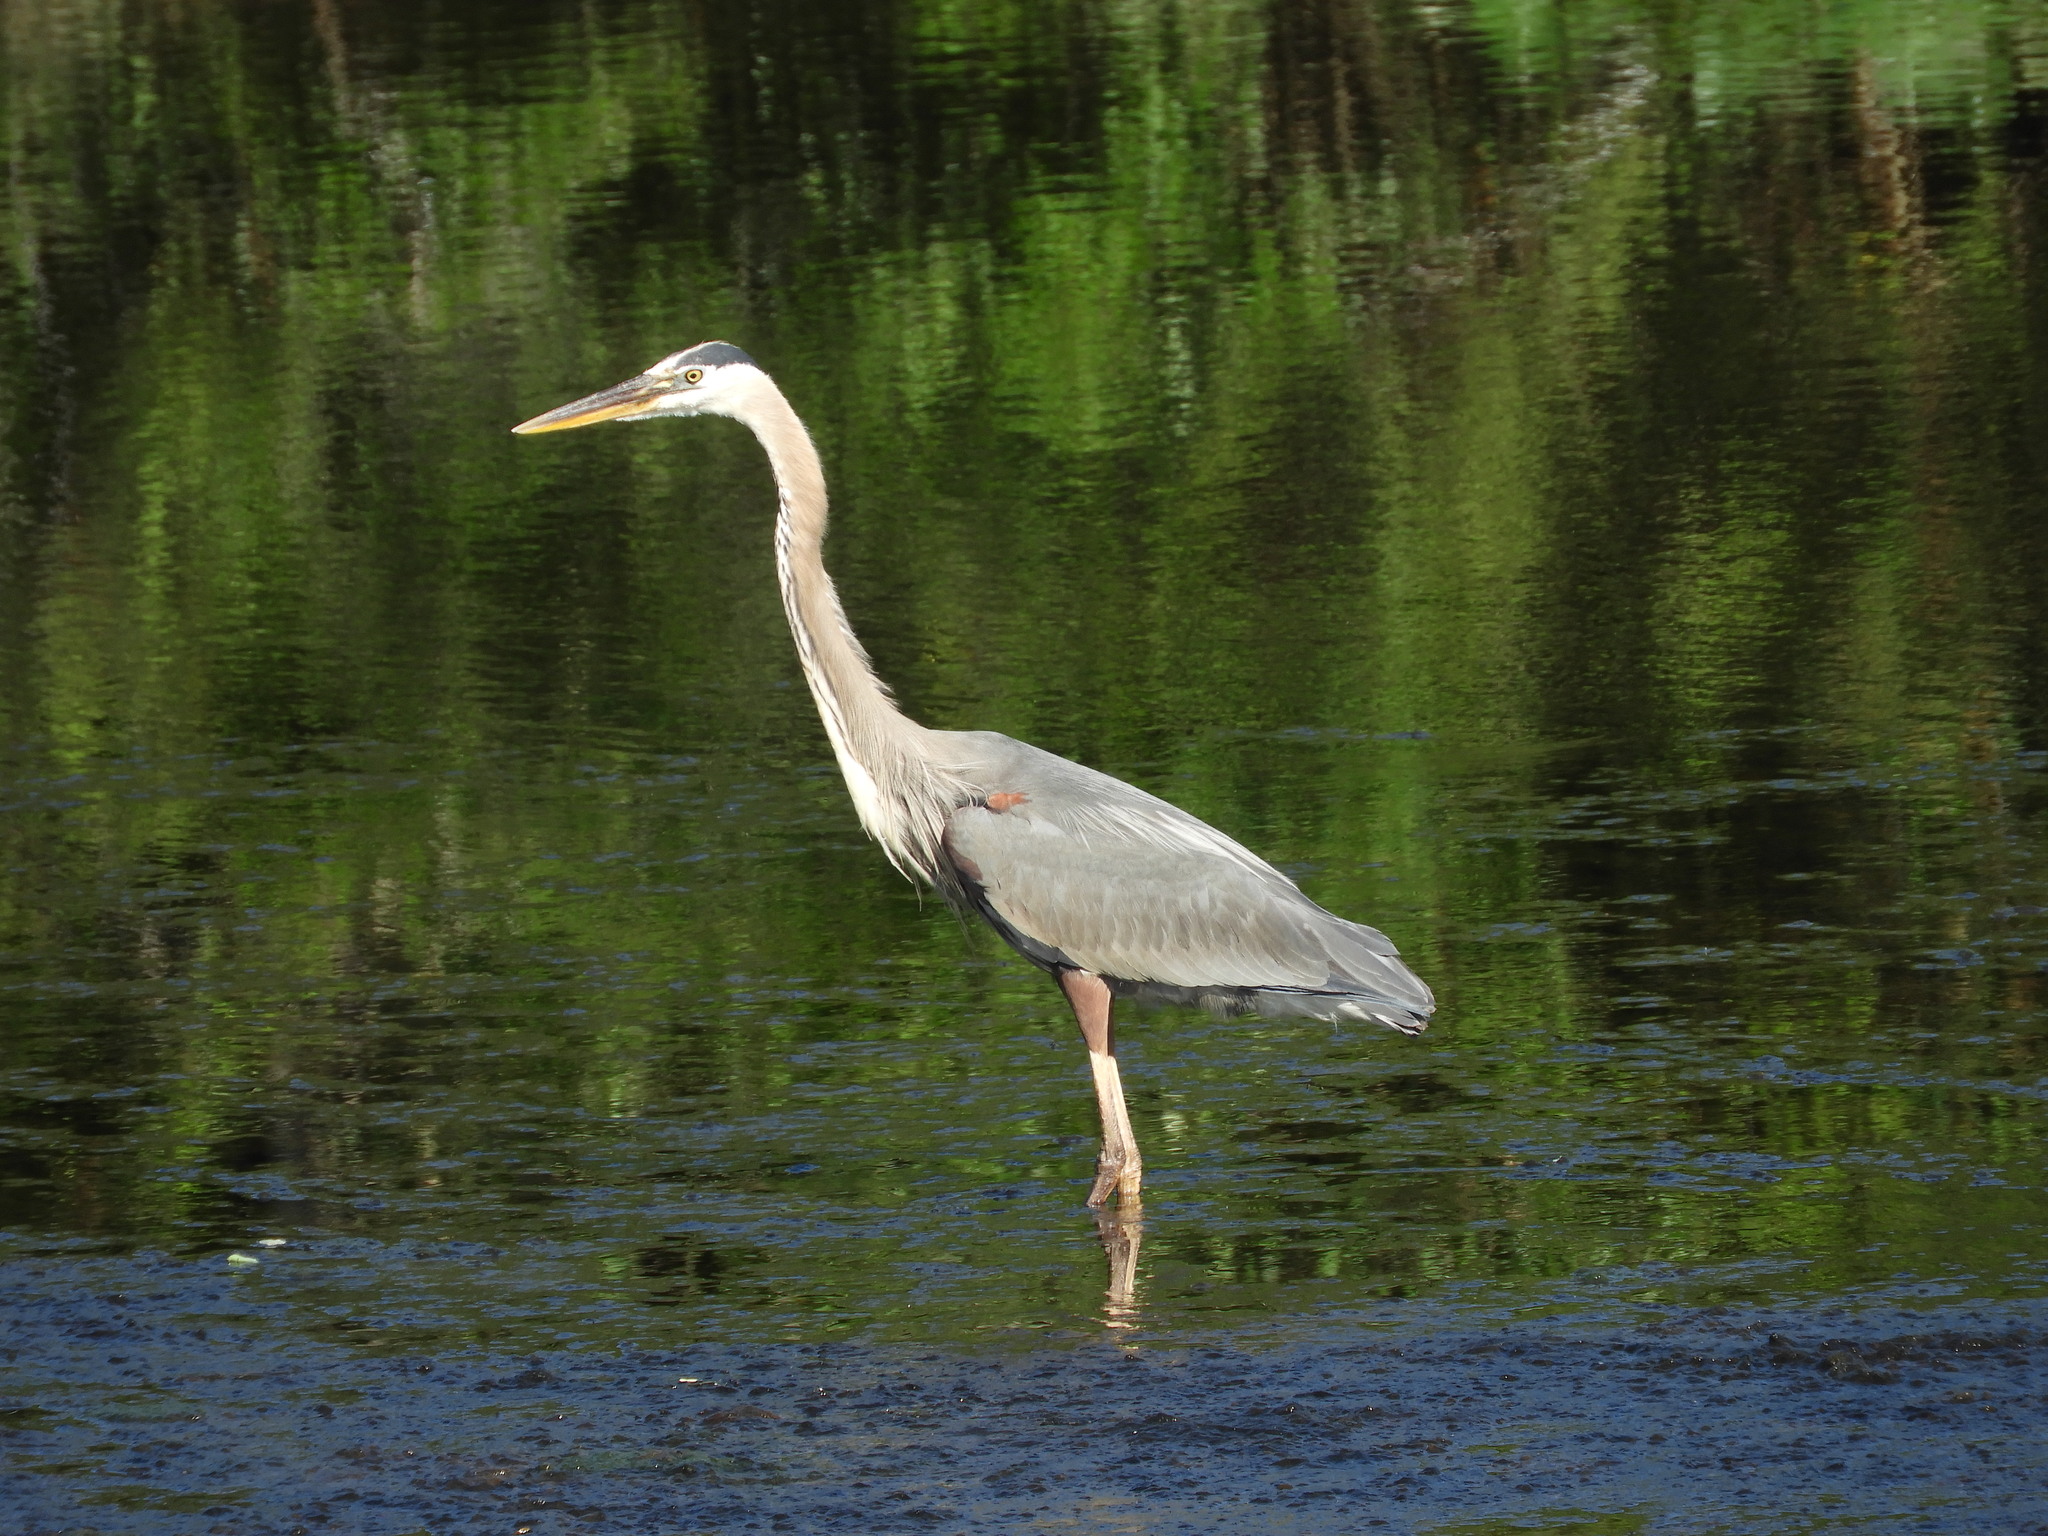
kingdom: Animalia
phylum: Chordata
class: Aves
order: Pelecaniformes
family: Ardeidae
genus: Ardea
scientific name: Ardea herodias
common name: Great blue heron
